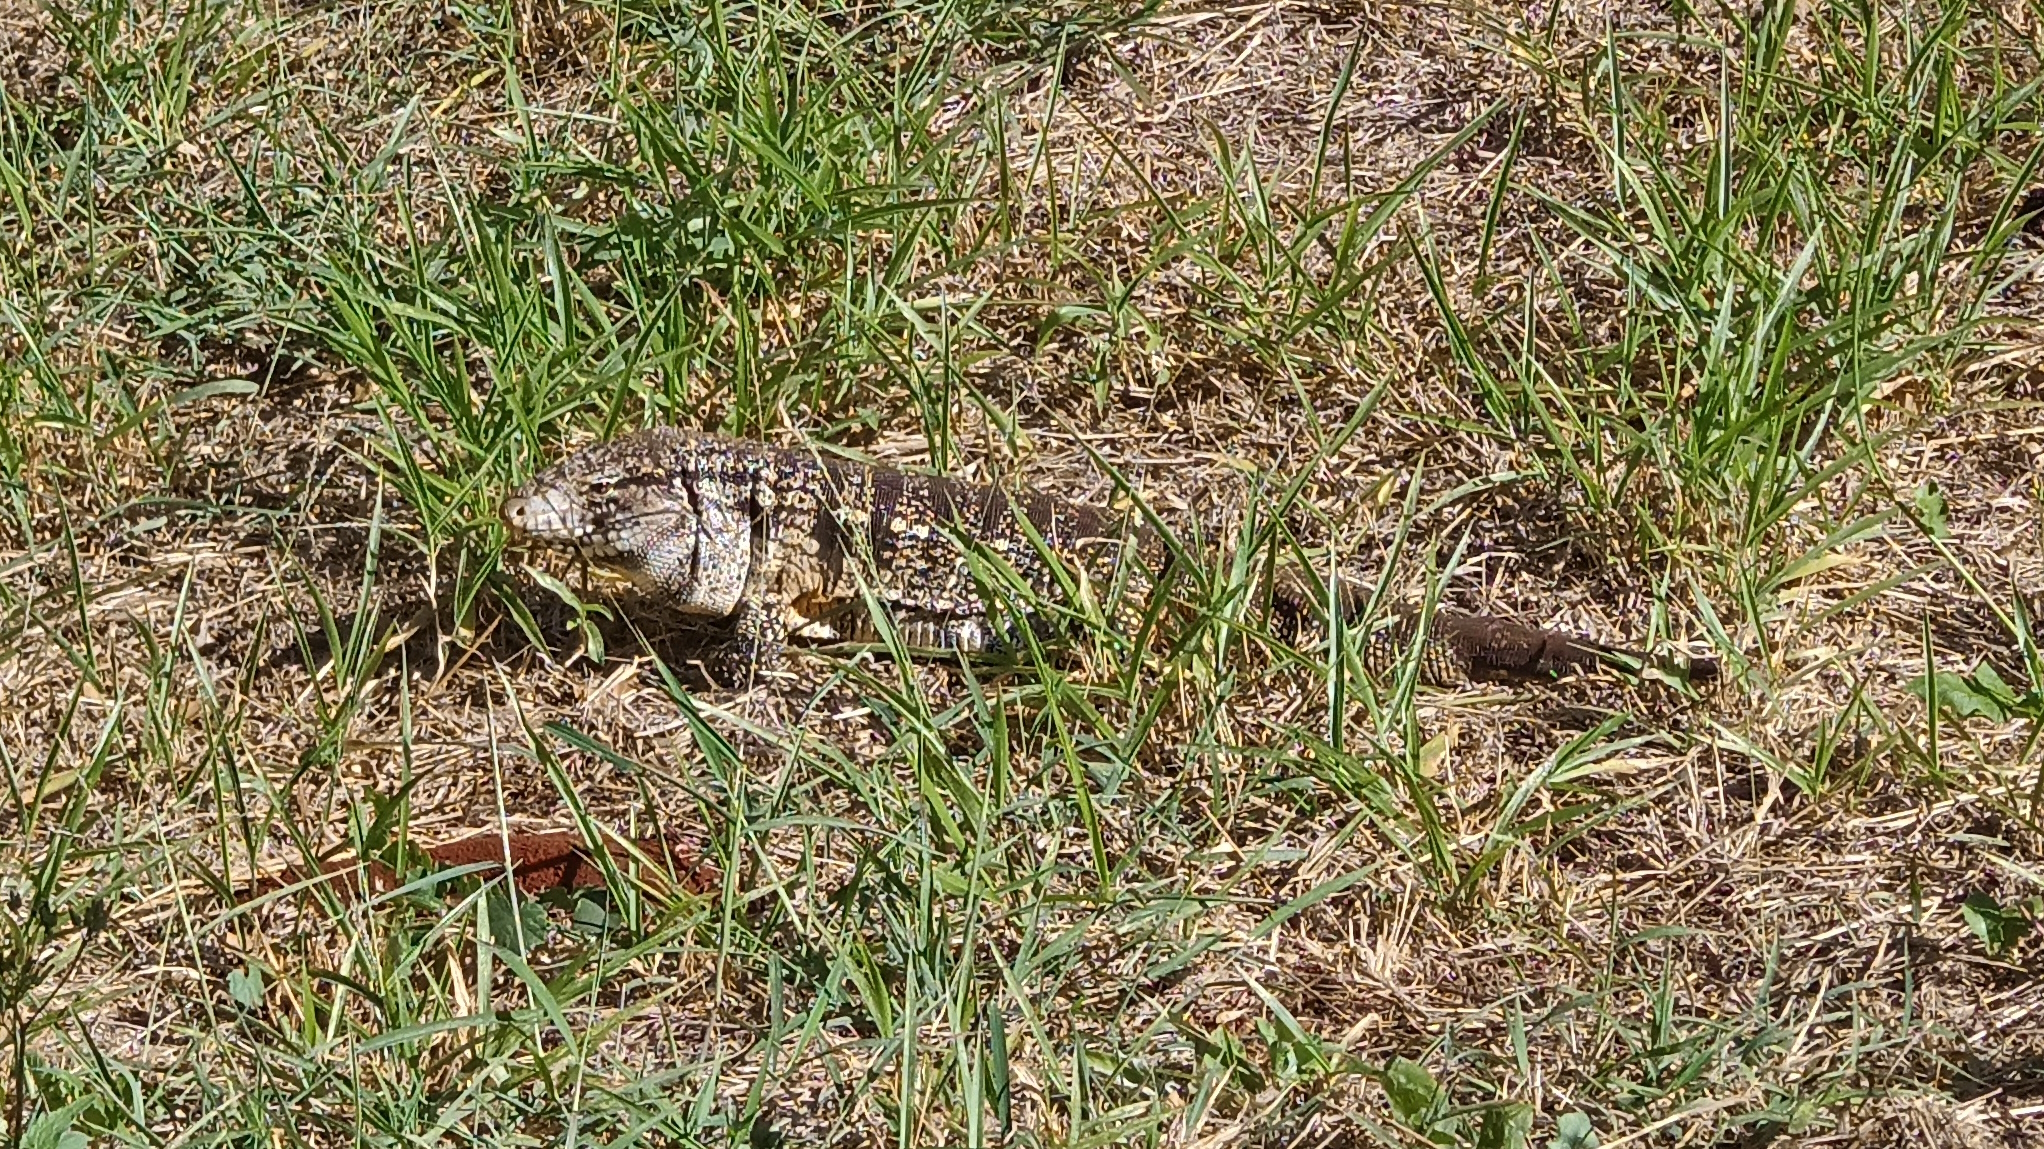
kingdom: Animalia
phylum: Chordata
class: Squamata
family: Teiidae
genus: Salvator
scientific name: Salvator merianae
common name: Argentine black and white tegu
